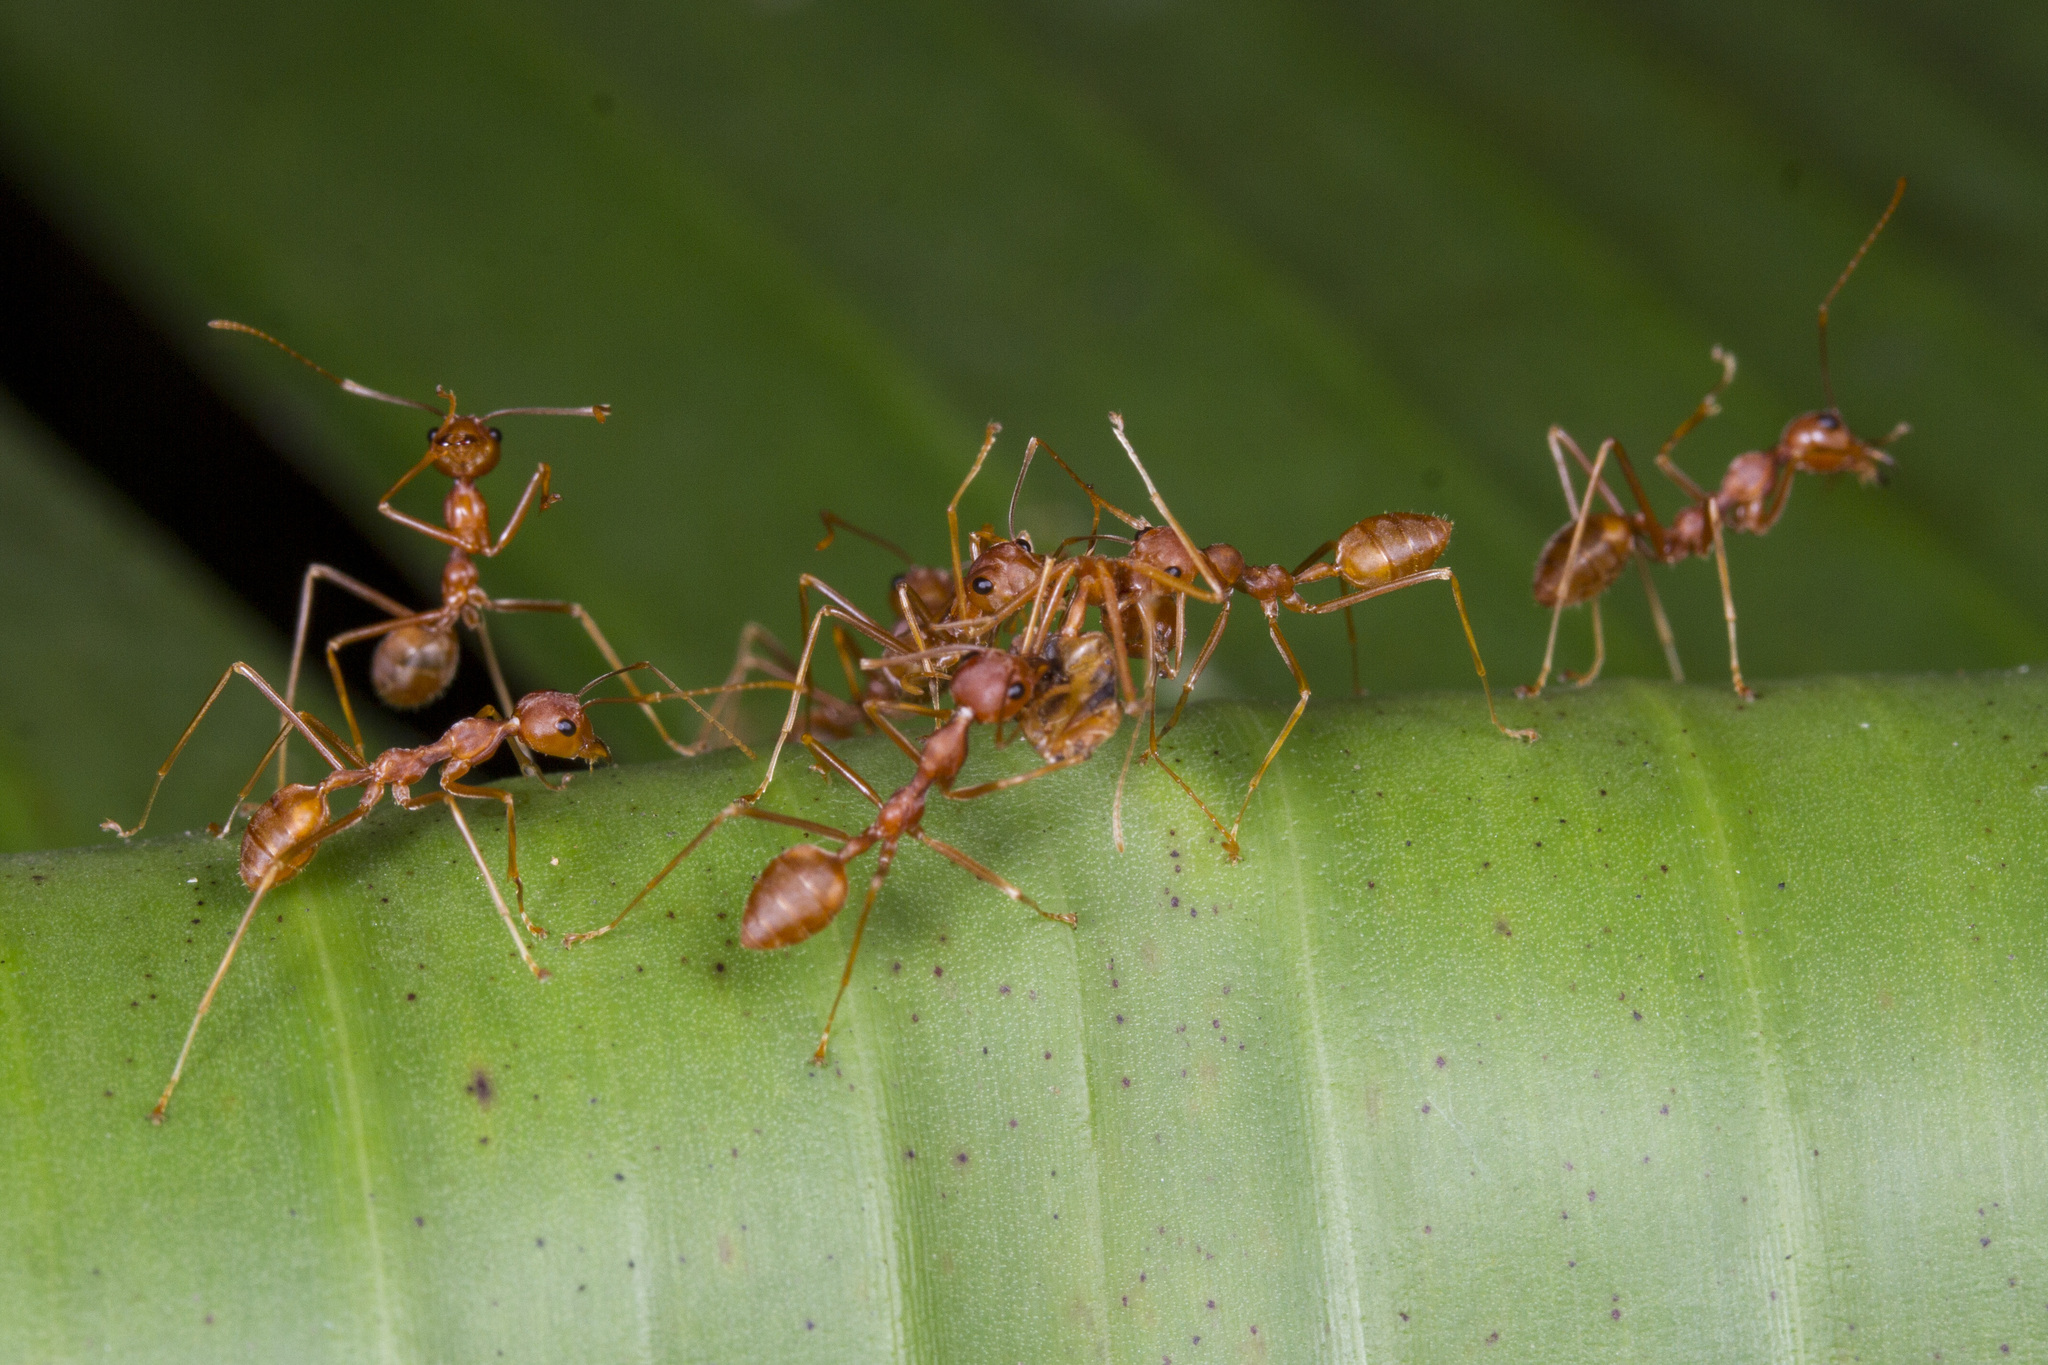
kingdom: Animalia
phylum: Arthropoda
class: Insecta
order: Hymenoptera
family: Formicidae
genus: Oecophylla
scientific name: Oecophylla smaragdina
